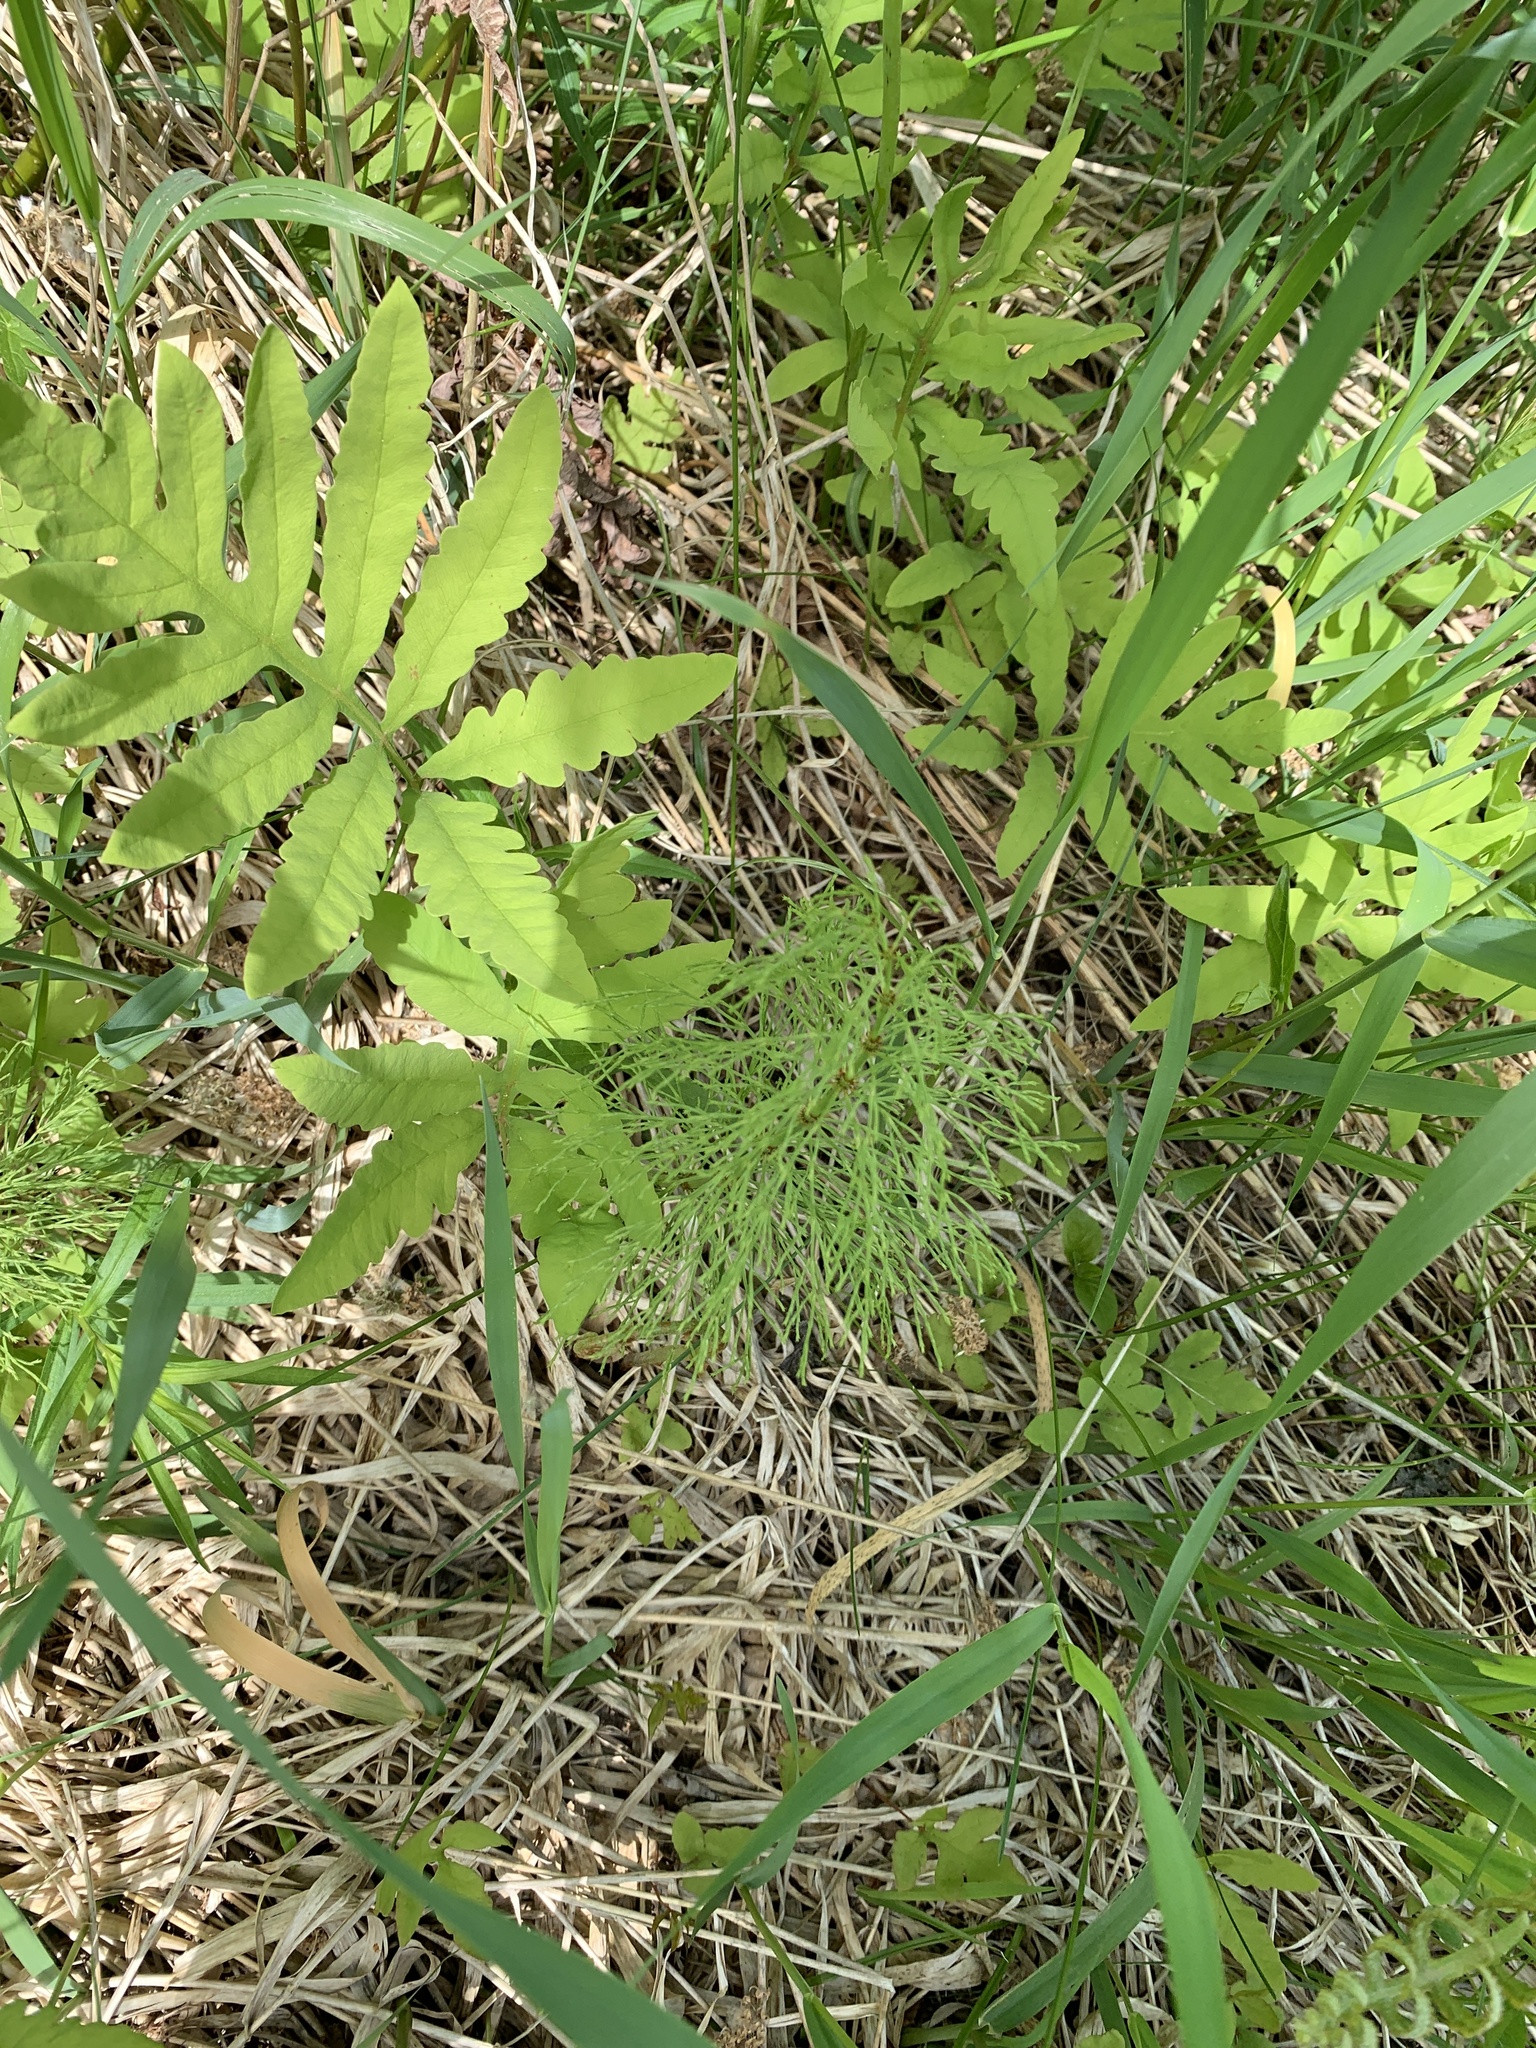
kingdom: Plantae
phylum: Tracheophyta
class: Polypodiopsida
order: Equisetales
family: Equisetaceae
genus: Equisetum
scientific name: Equisetum sylvaticum
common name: Wood horsetail
